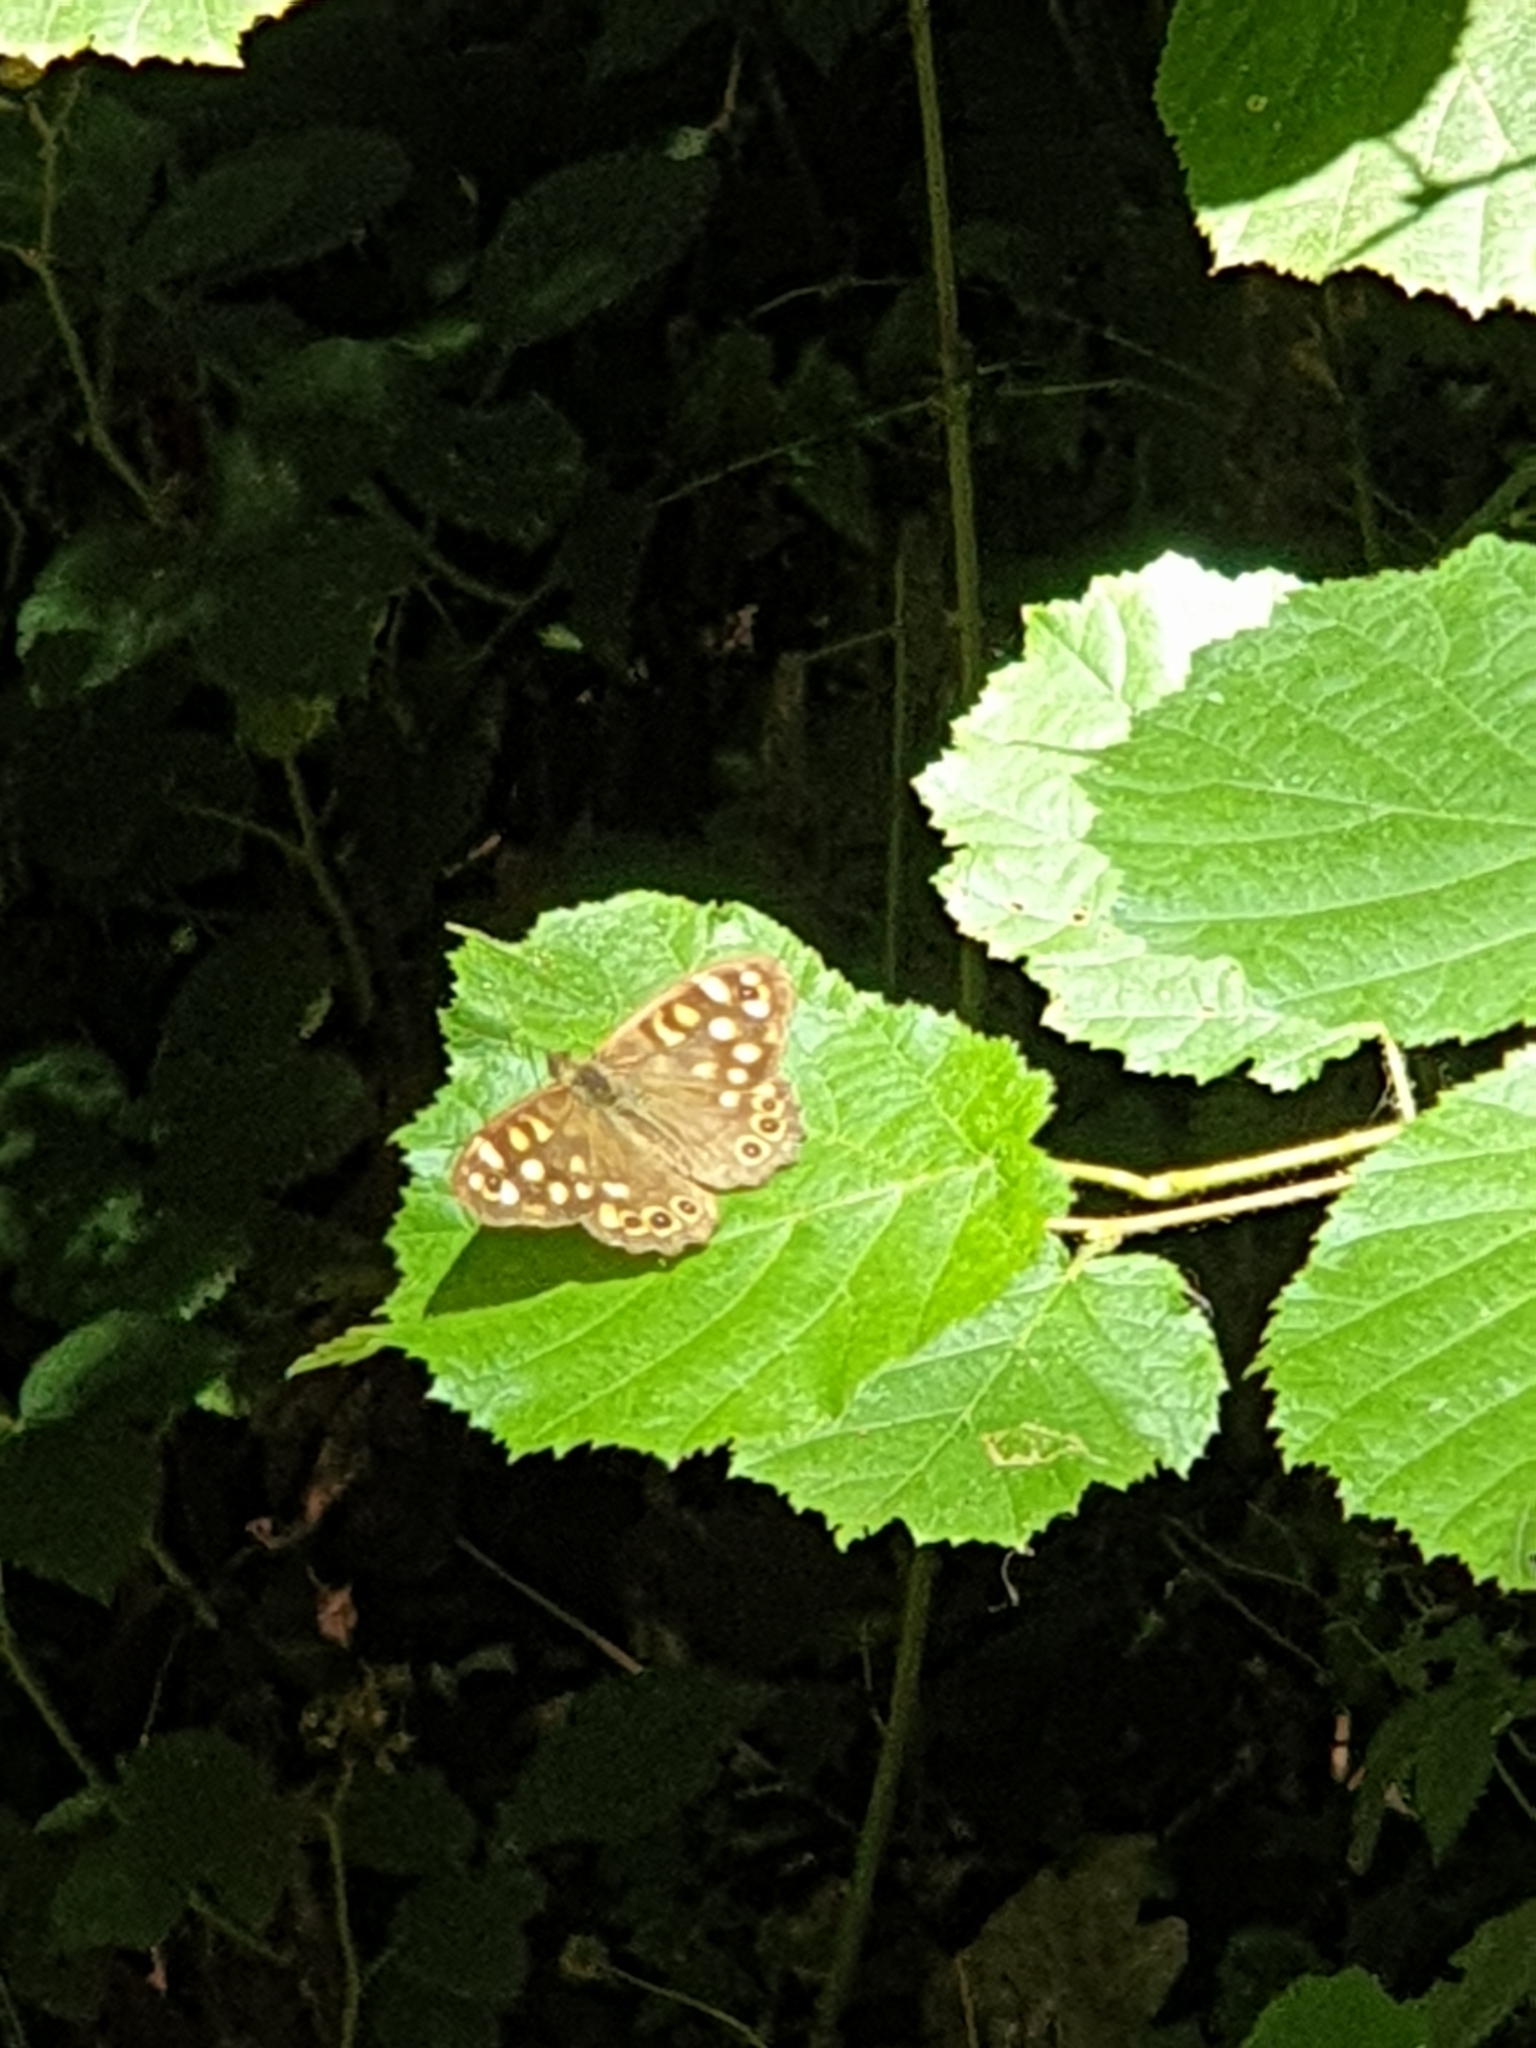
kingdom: Animalia
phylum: Arthropoda
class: Insecta
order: Lepidoptera
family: Nymphalidae
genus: Pararge
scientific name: Pararge aegeria
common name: Speckled wood
